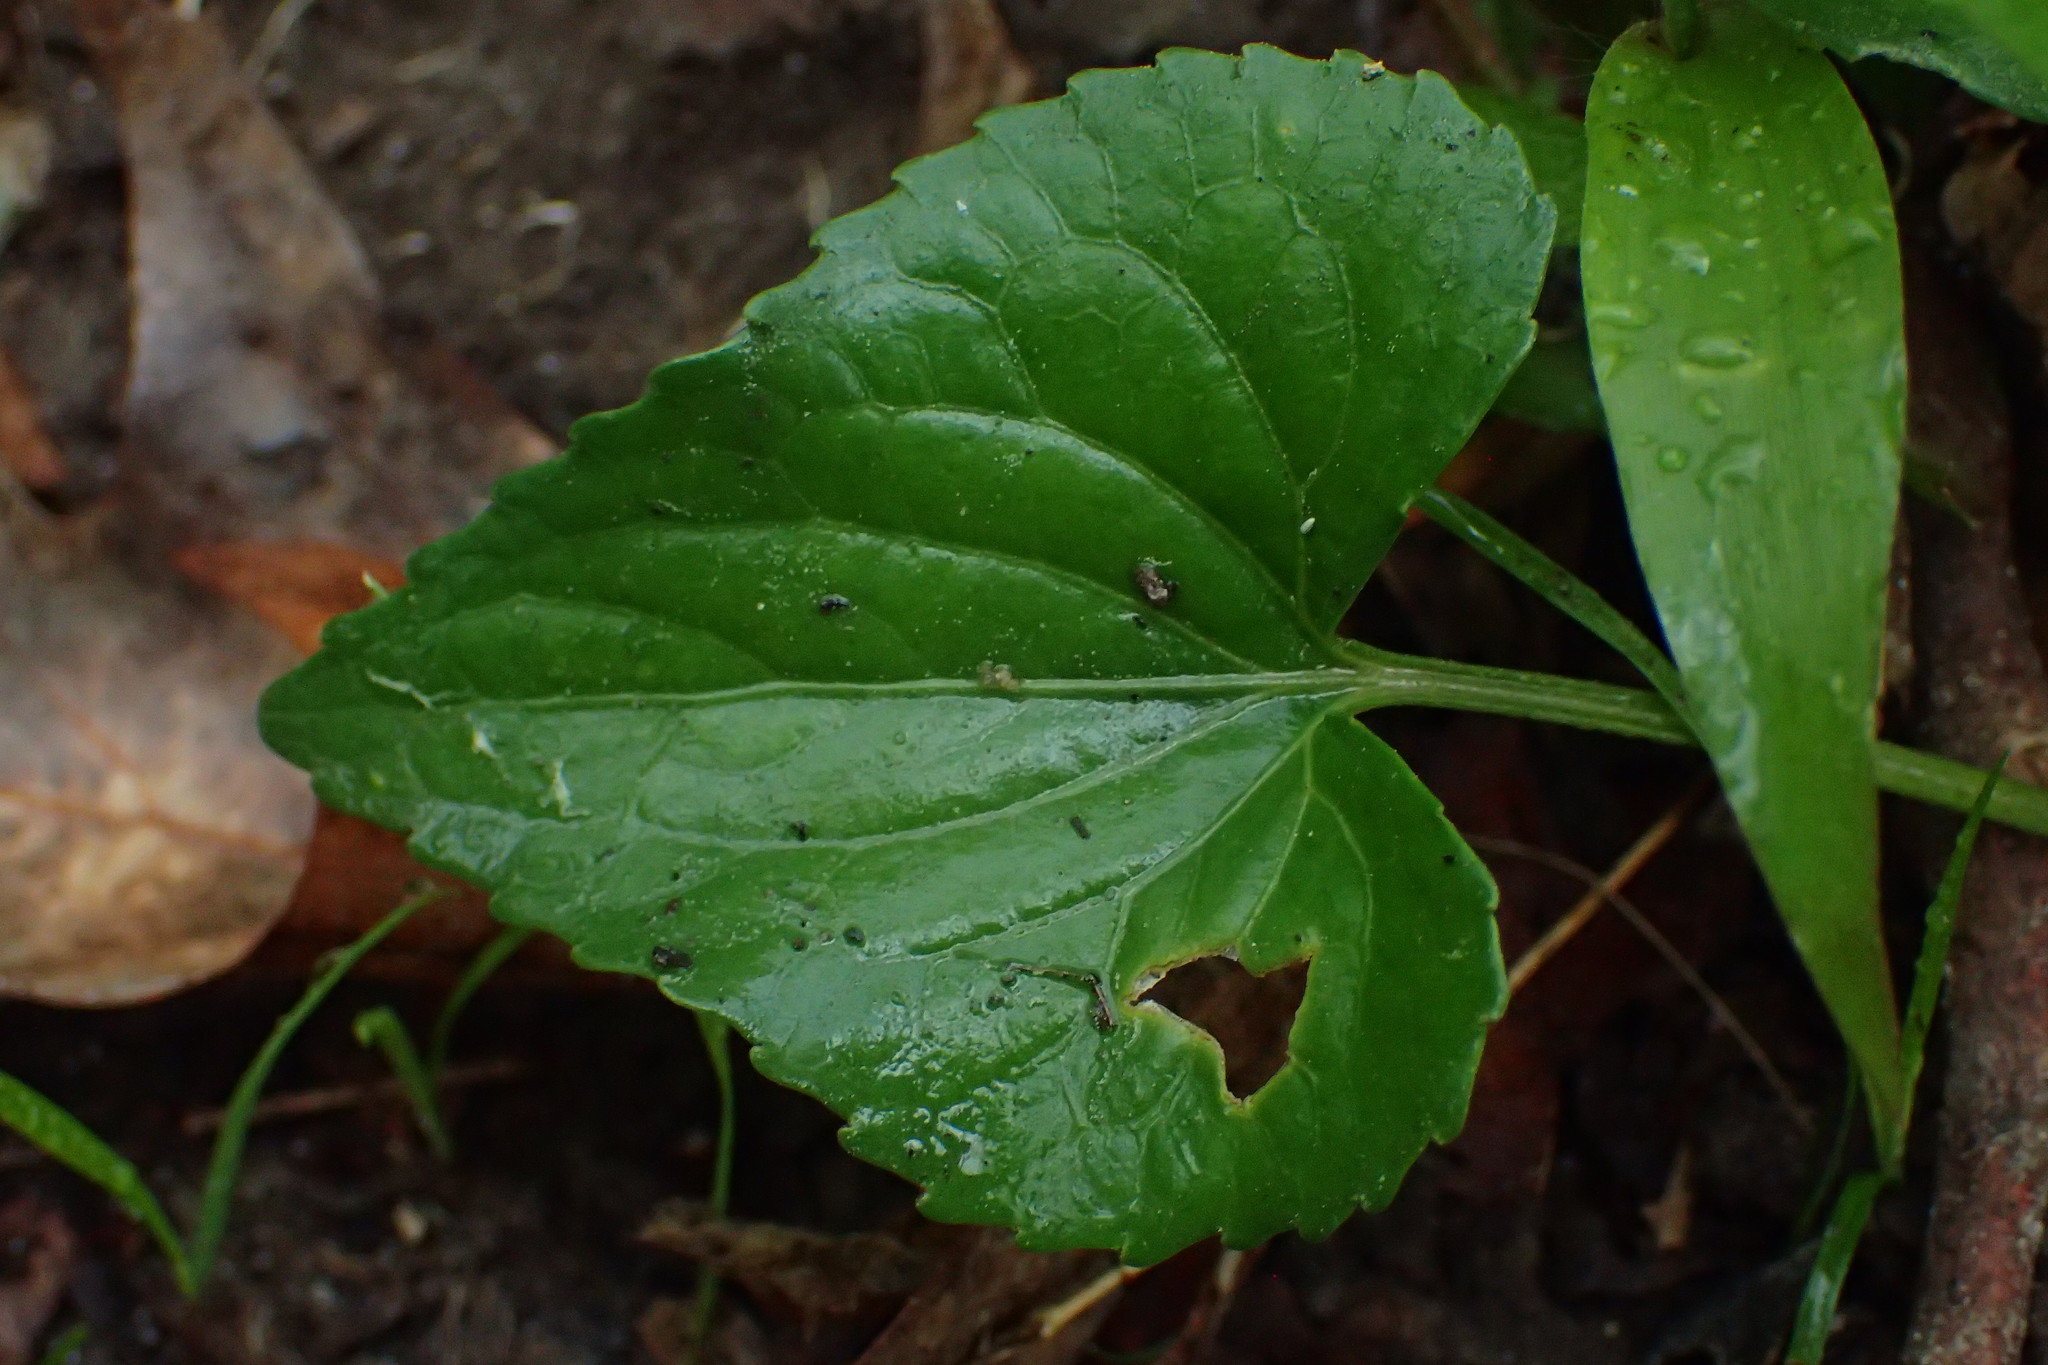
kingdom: Plantae
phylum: Tracheophyta
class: Magnoliopsida
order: Malpighiales
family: Violaceae
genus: Viola
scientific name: Viola sororia
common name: Dooryard violet
